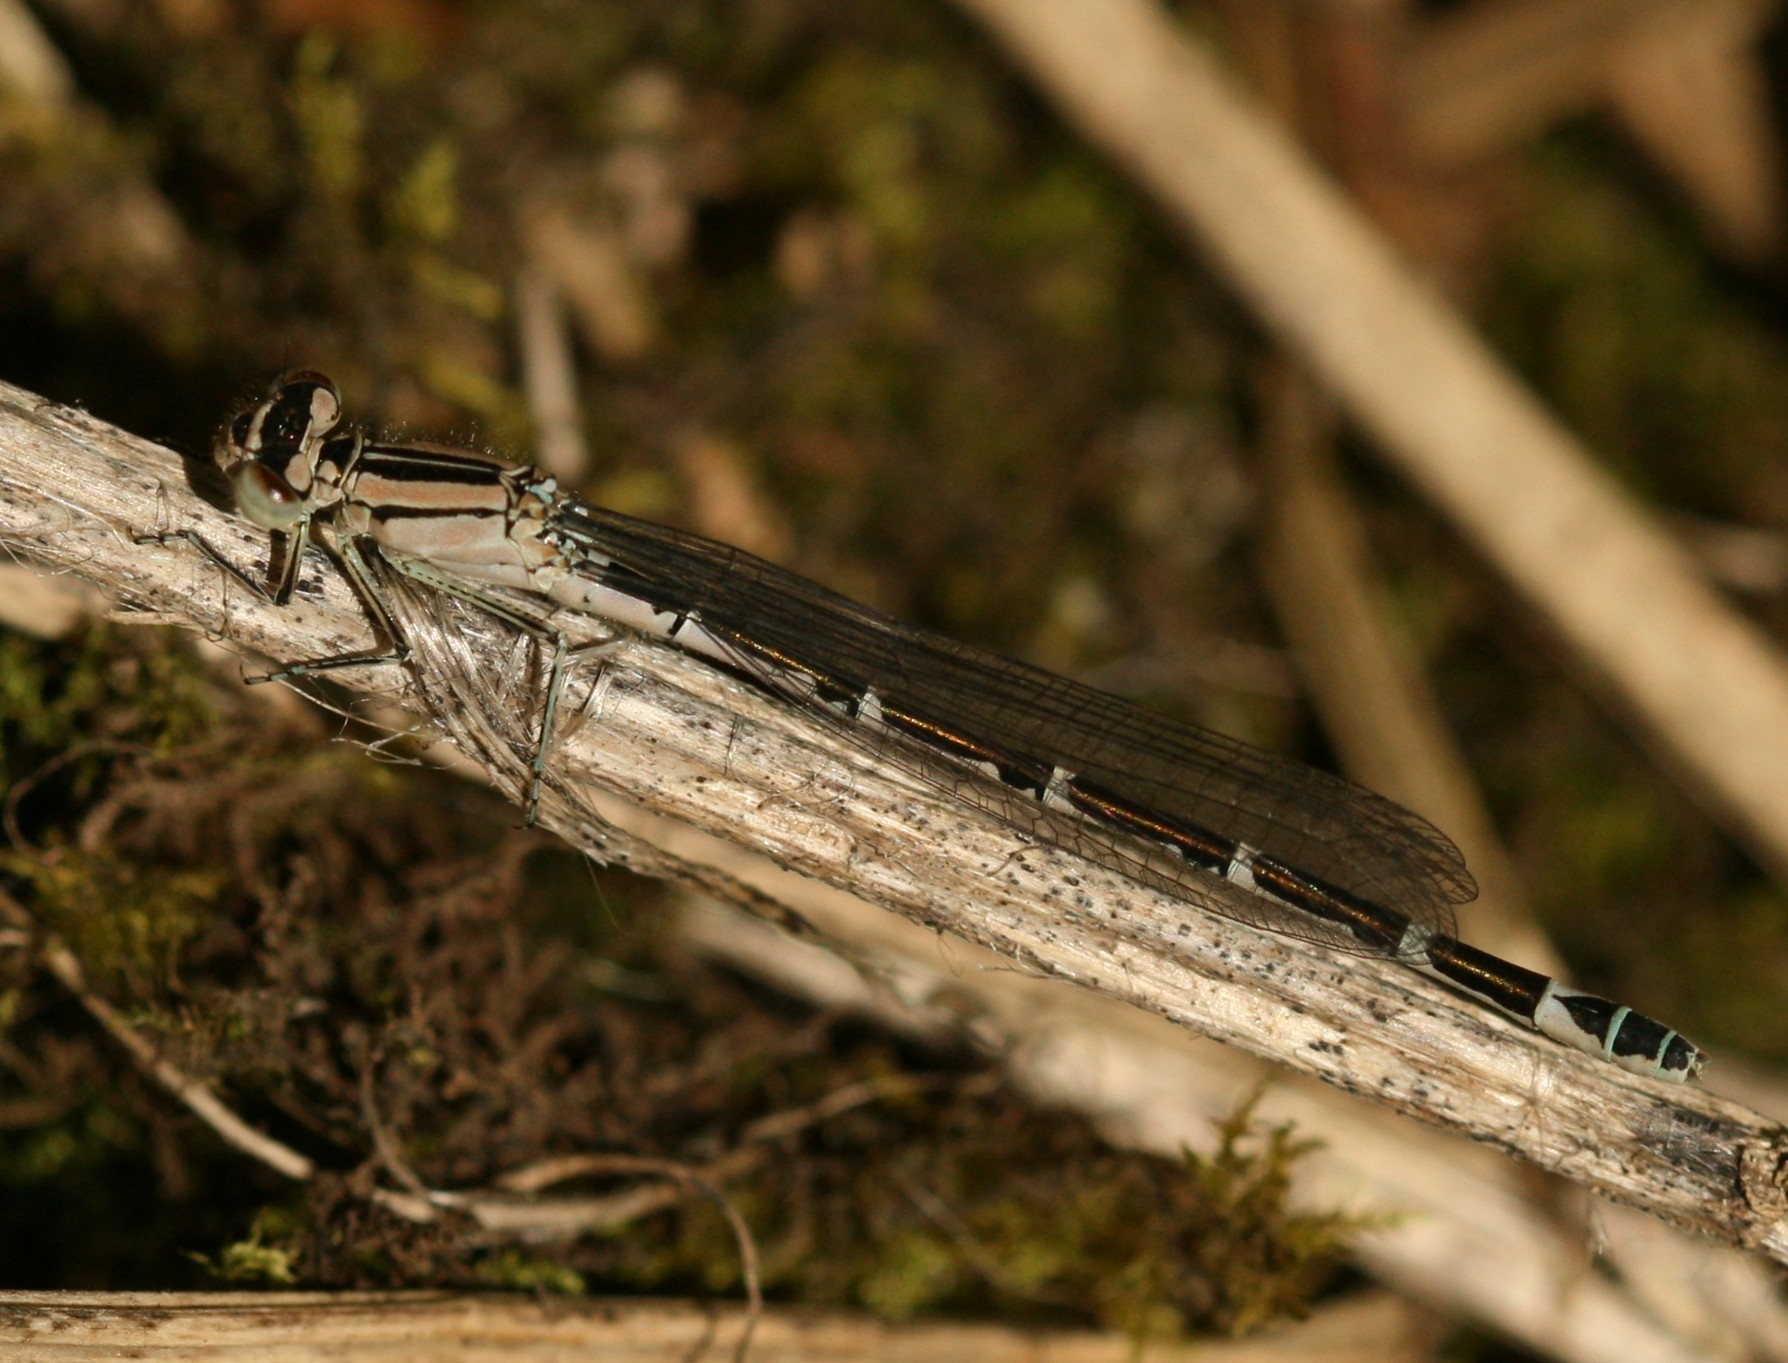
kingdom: Animalia
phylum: Arthropoda
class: Insecta
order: Odonata
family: Coenagrionidae
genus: Enallagma
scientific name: Enallagma cyathigerum
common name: Common blue damselfly
